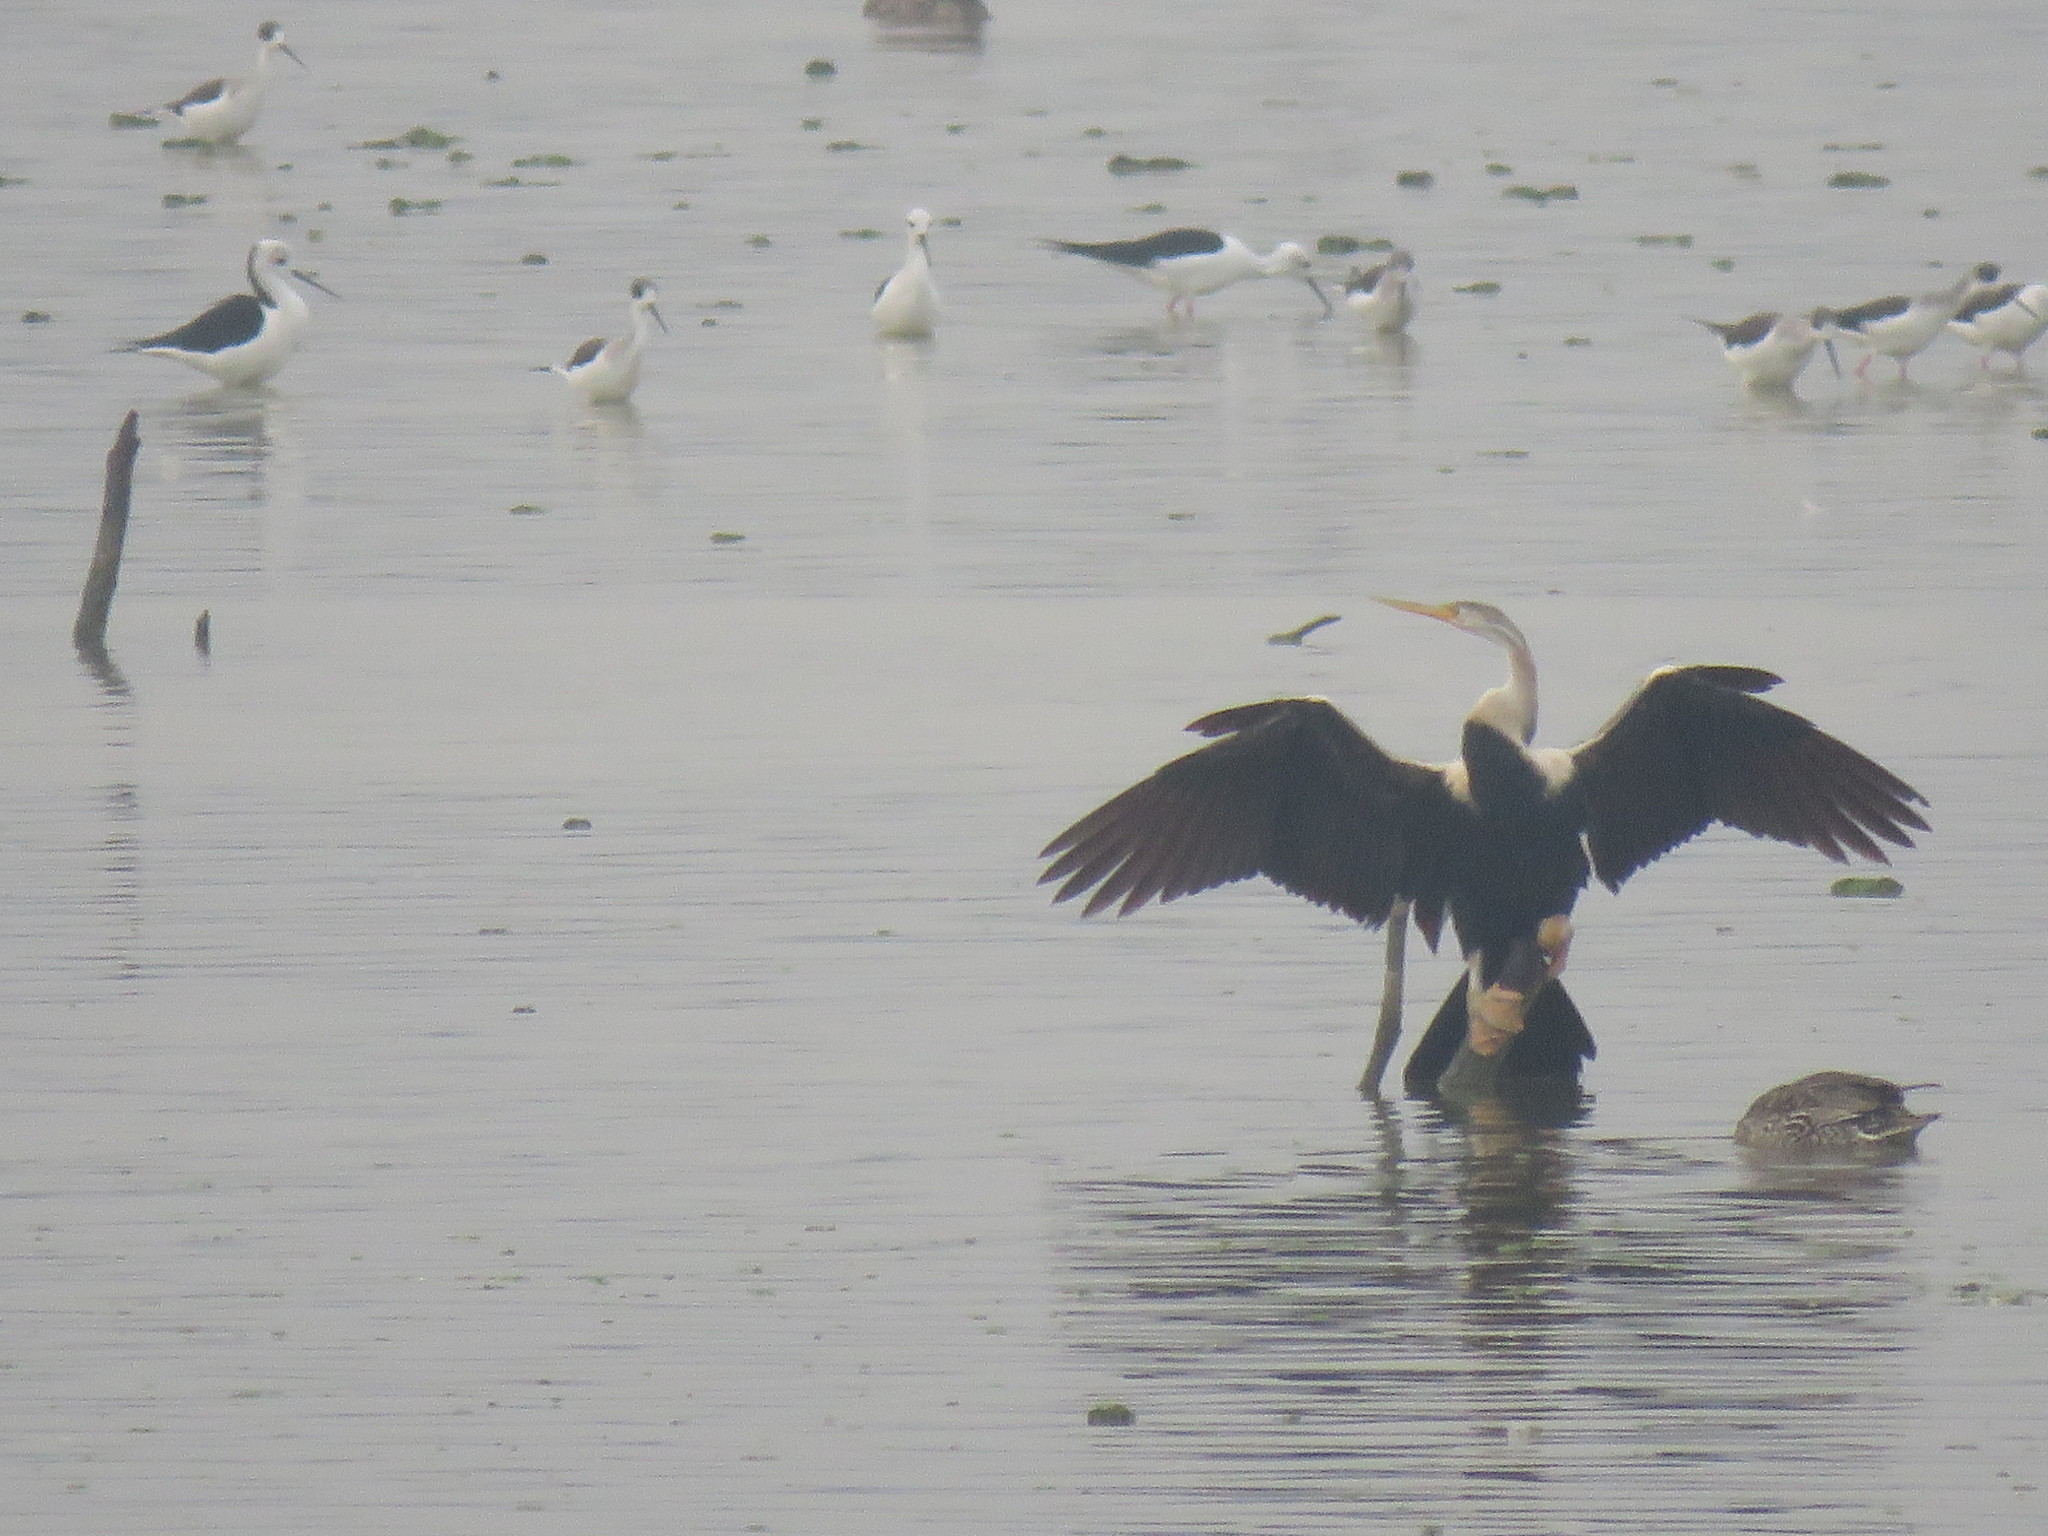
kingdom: Animalia
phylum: Chordata
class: Aves
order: Suliformes
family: Anhingidae
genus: Anhinga
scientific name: Anhinga melanogaster
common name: Oriental darter
